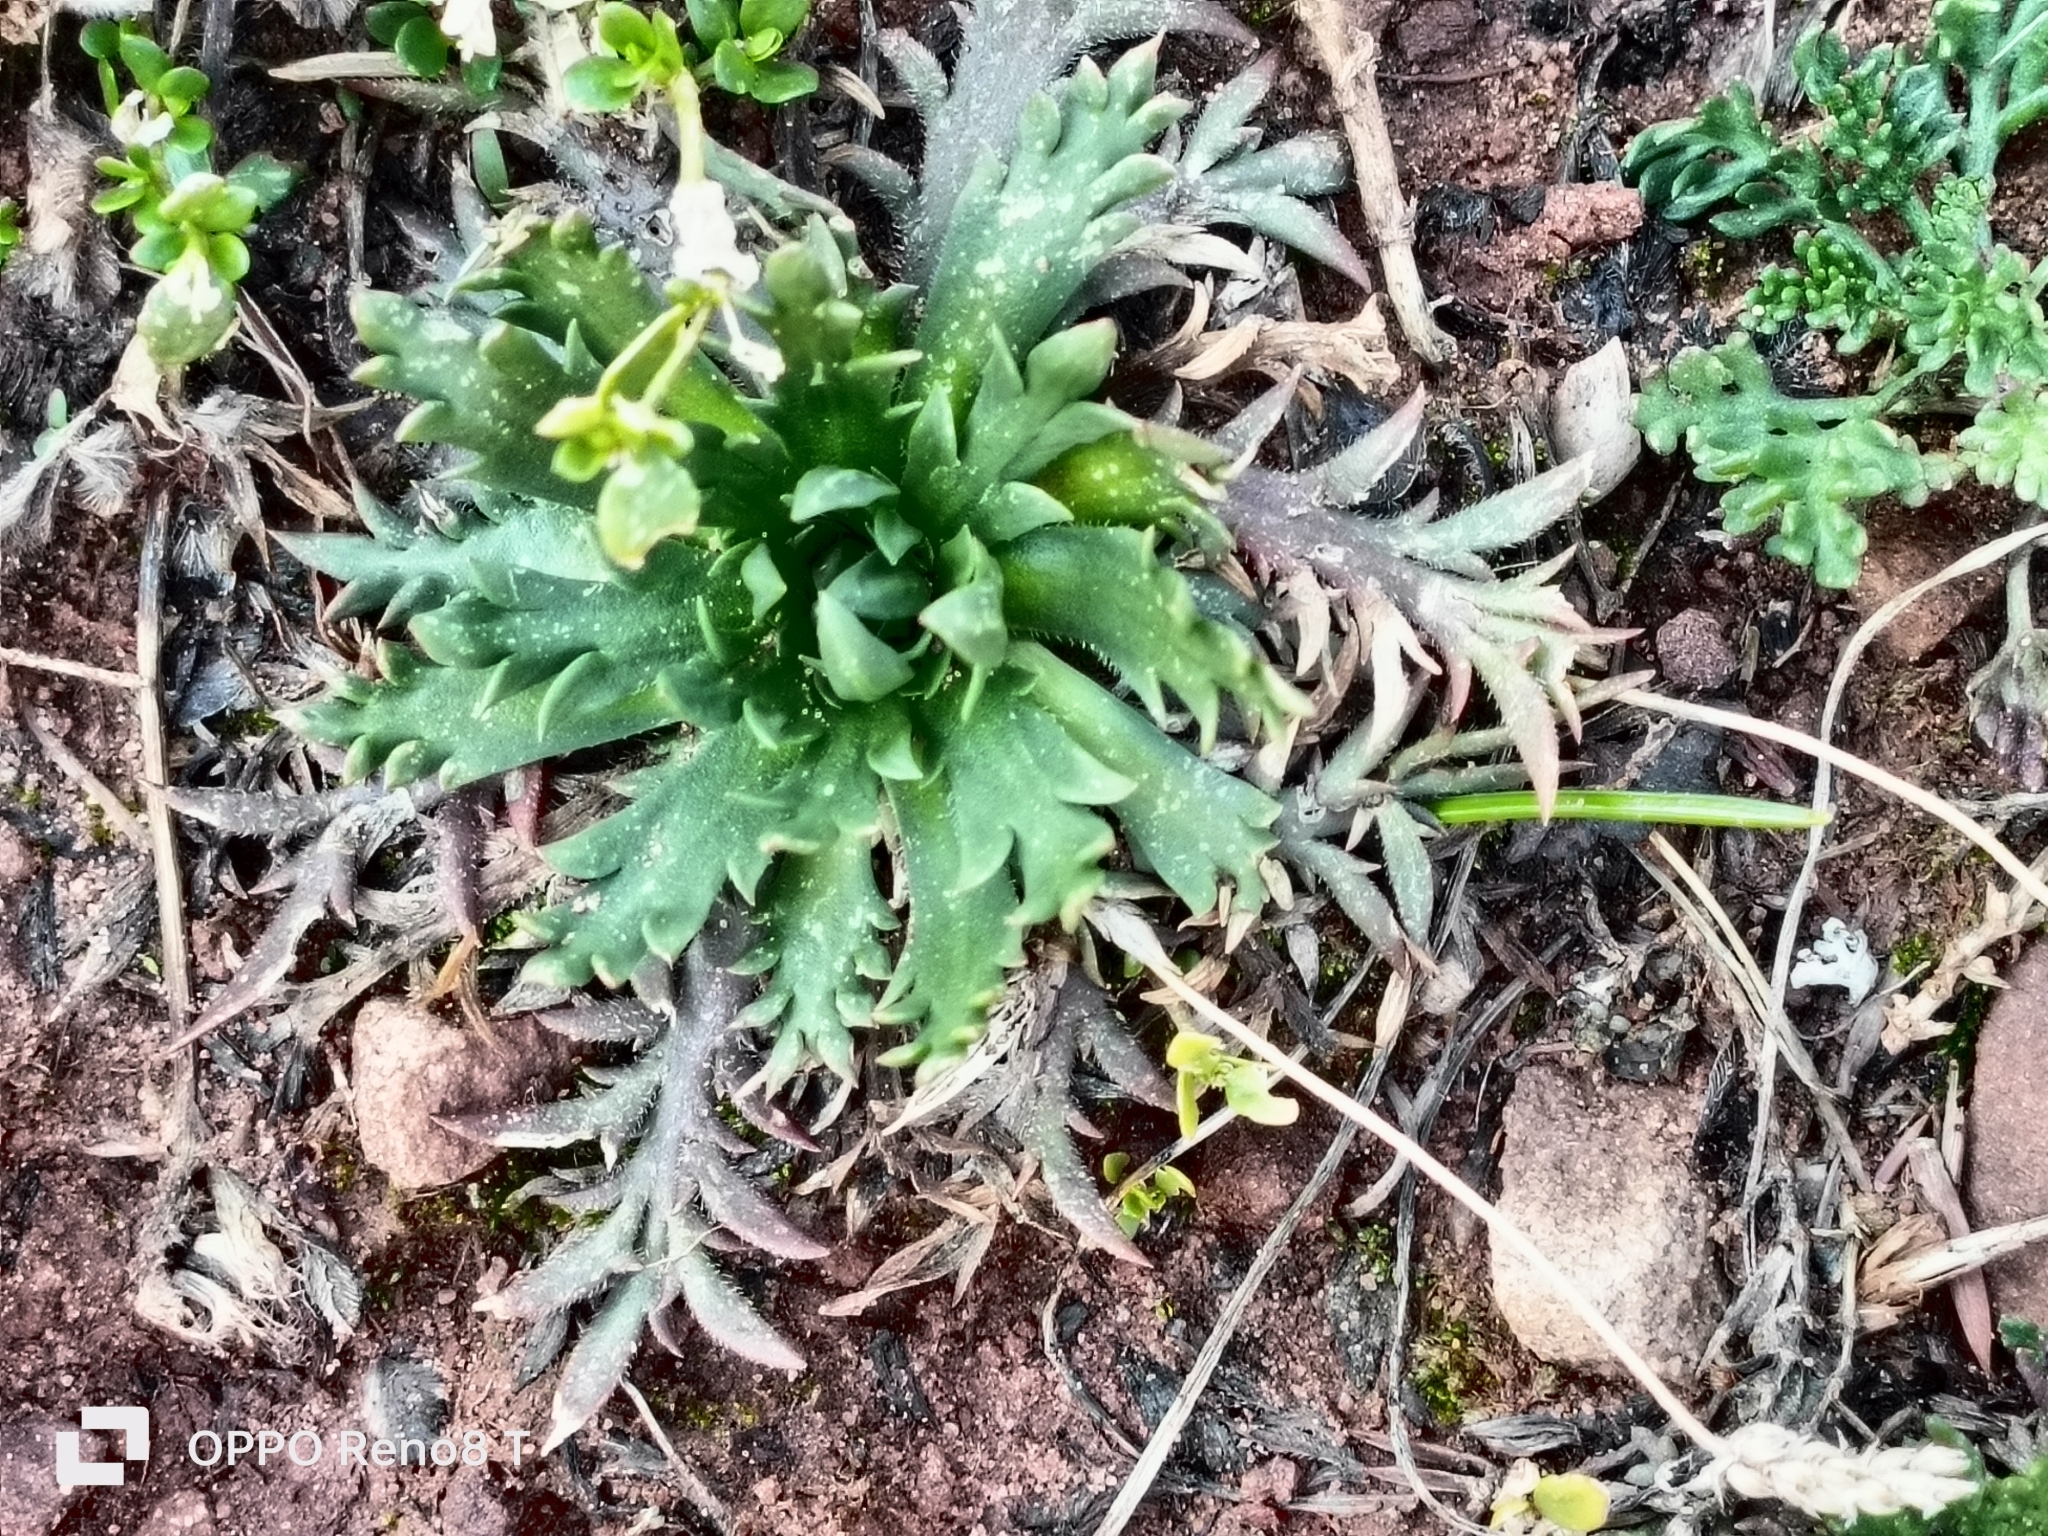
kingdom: Plantae
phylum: Tracheophyta
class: Magnoliopsida
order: Lamiales
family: Plantaginaceae
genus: Plantago
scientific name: Plantago coronopus
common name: Buck's-horn plantain
